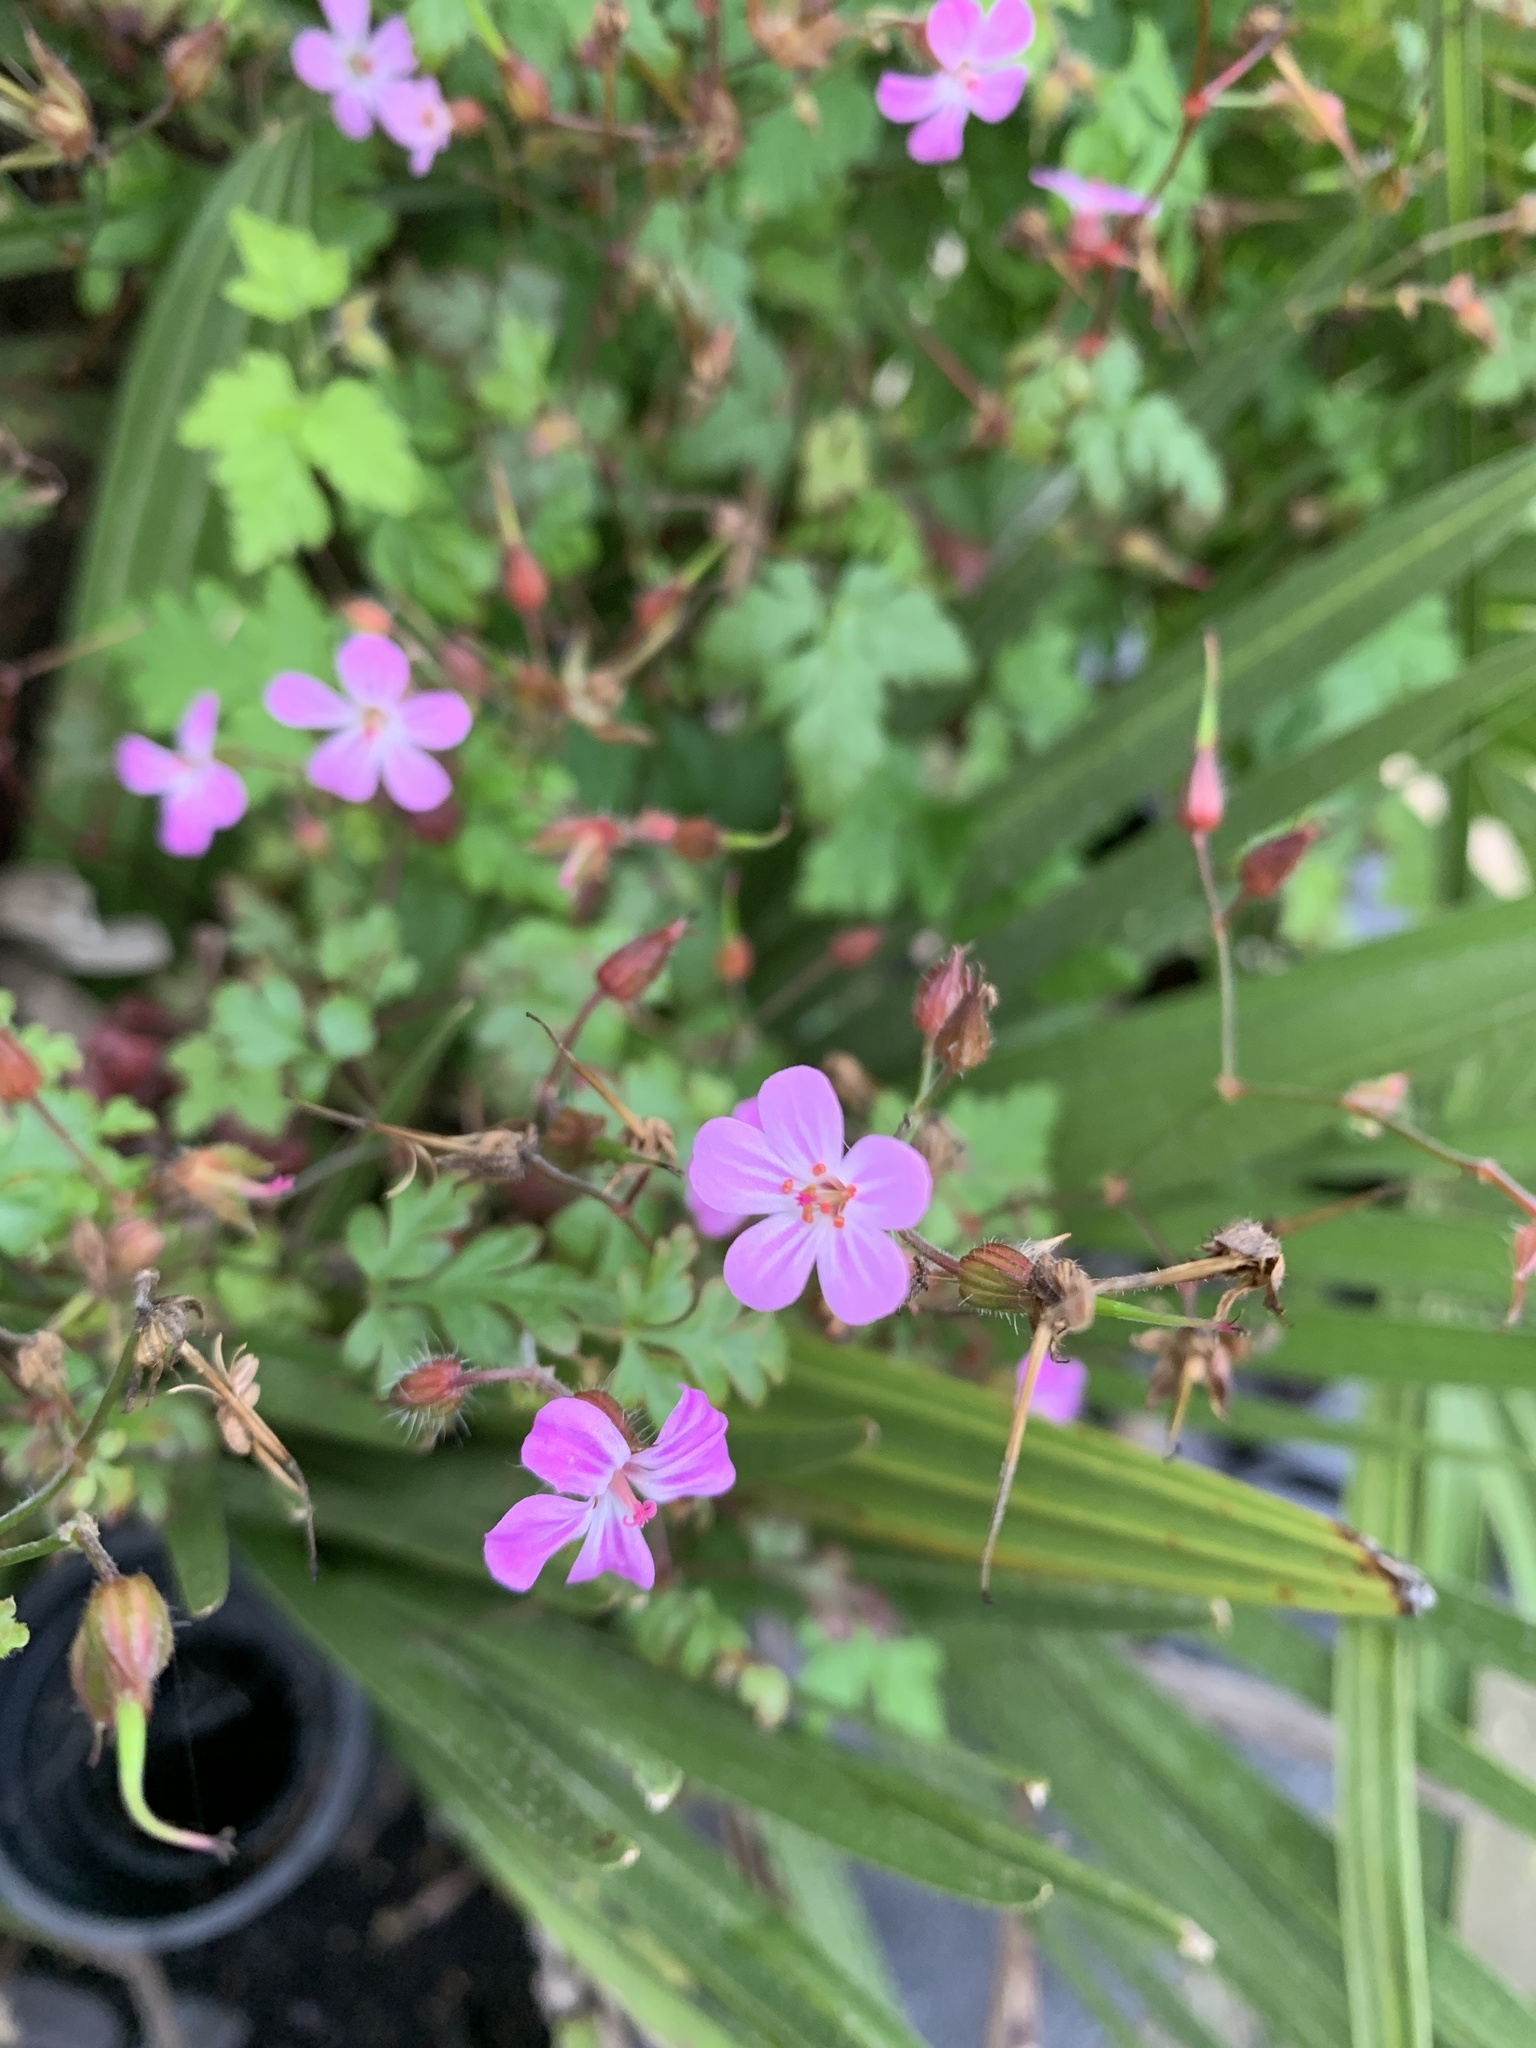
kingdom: Plantae
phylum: Tracheophyta
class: Magnoliopsida
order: Geraniales
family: Geraniaceae
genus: Geranium
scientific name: Geranium robertianum
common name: Herb-robert
